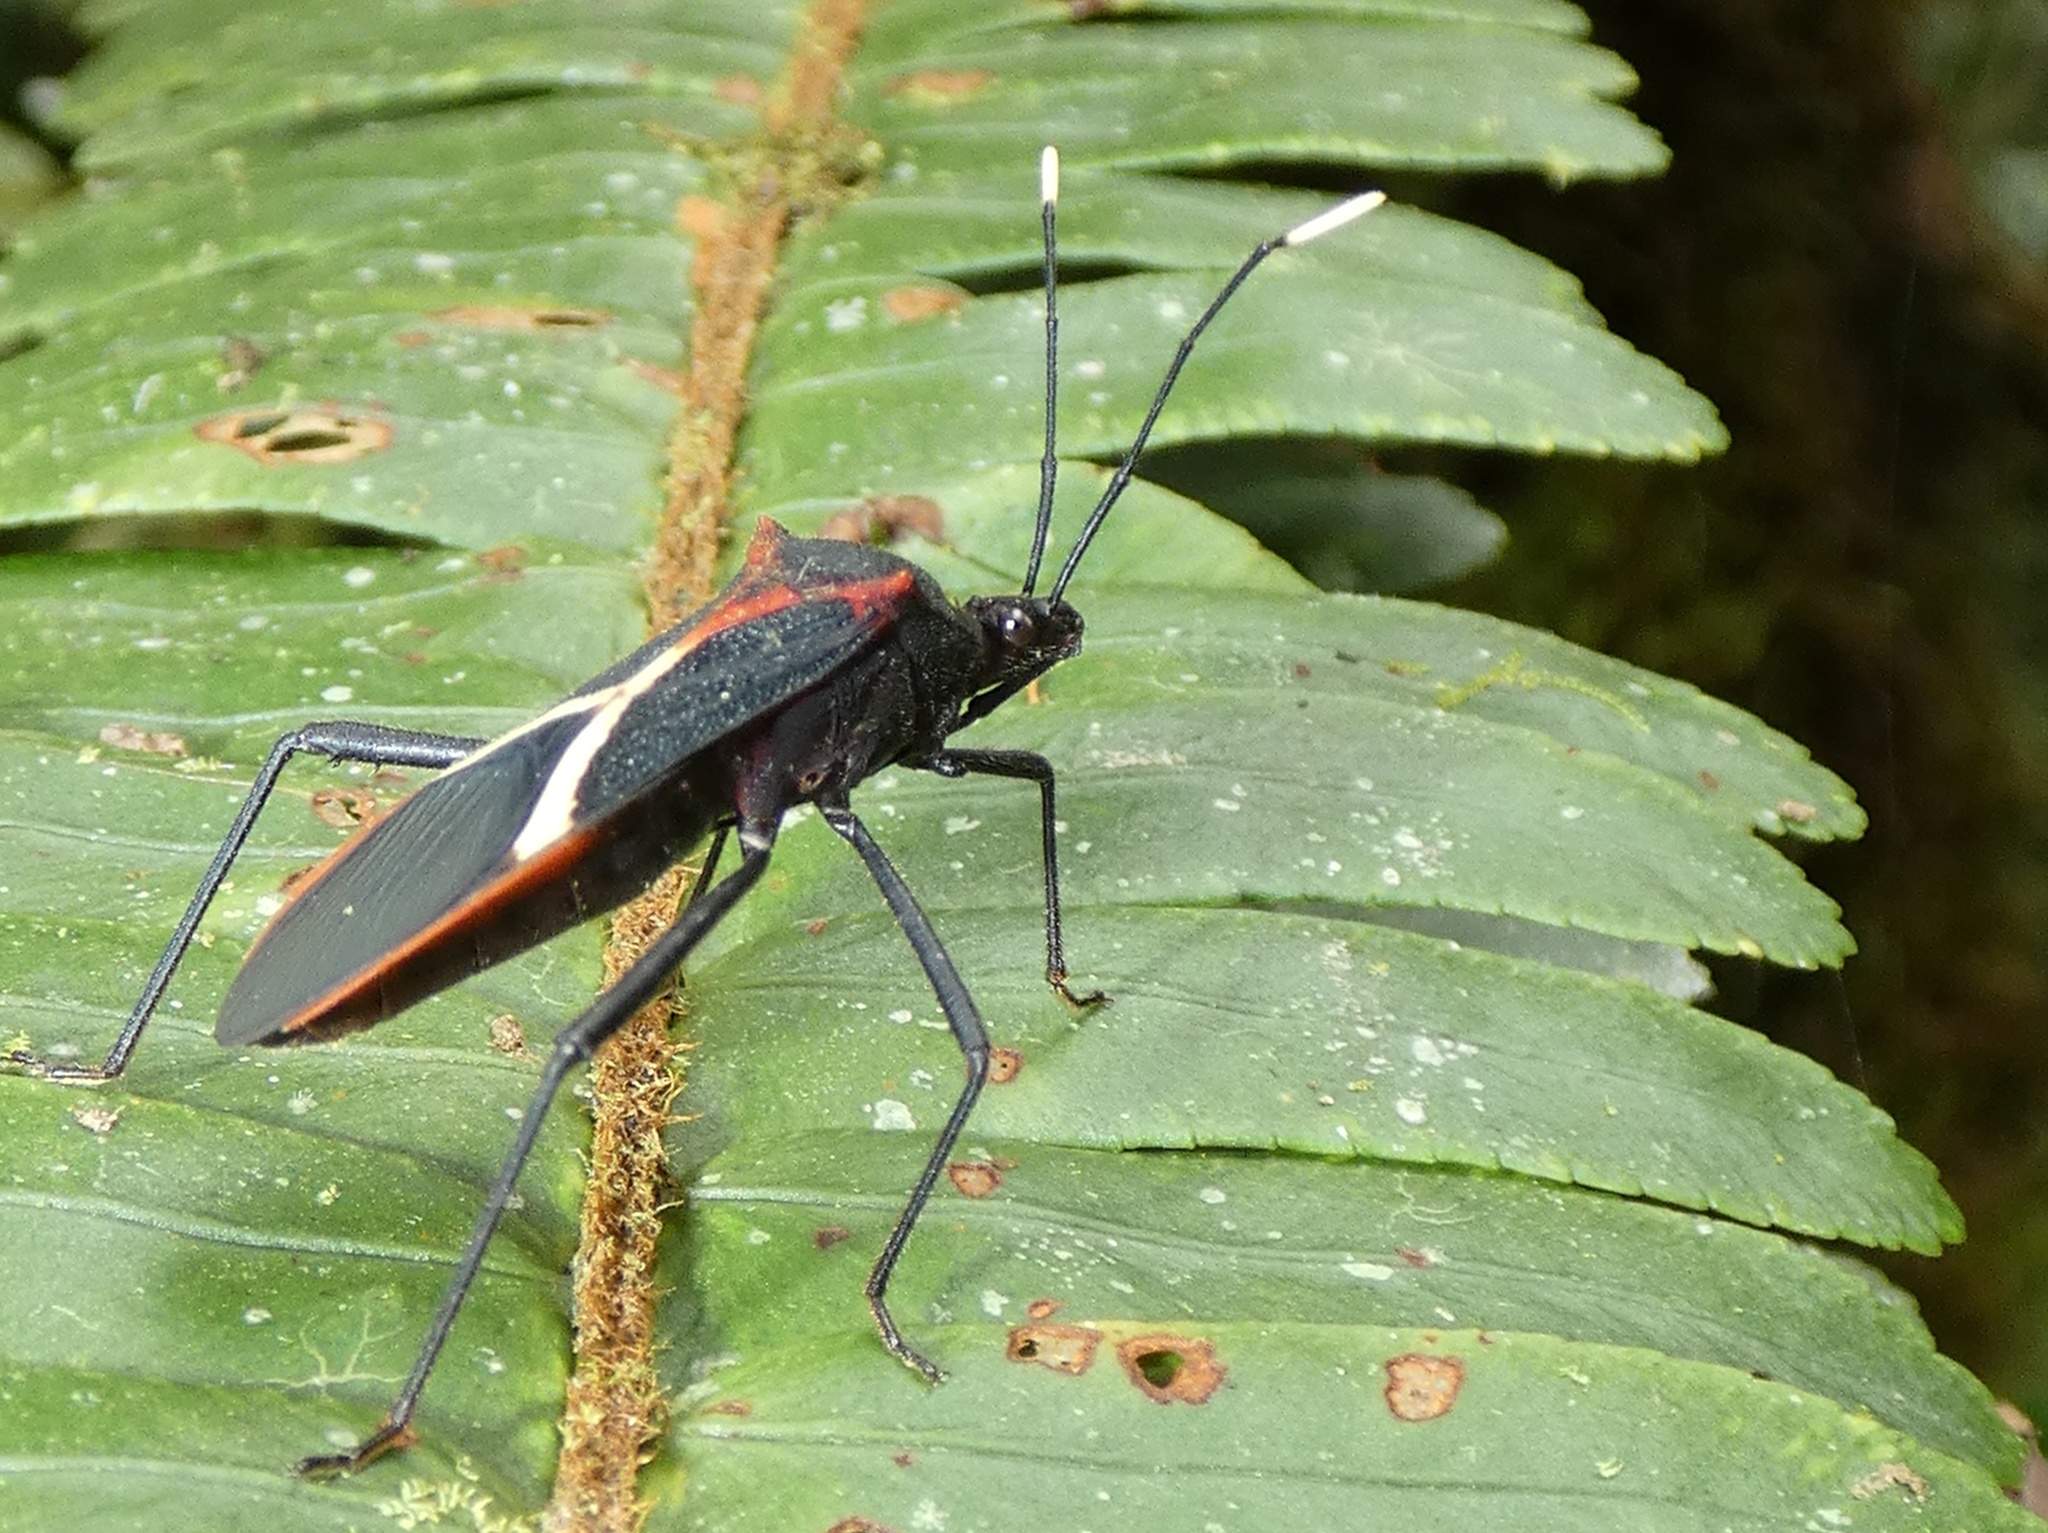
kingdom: Animalia
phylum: Arthropoda
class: Insecta
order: Hemiptera
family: Coreidae
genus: Leptoscelis
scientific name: Leptoscelis conspicuus
